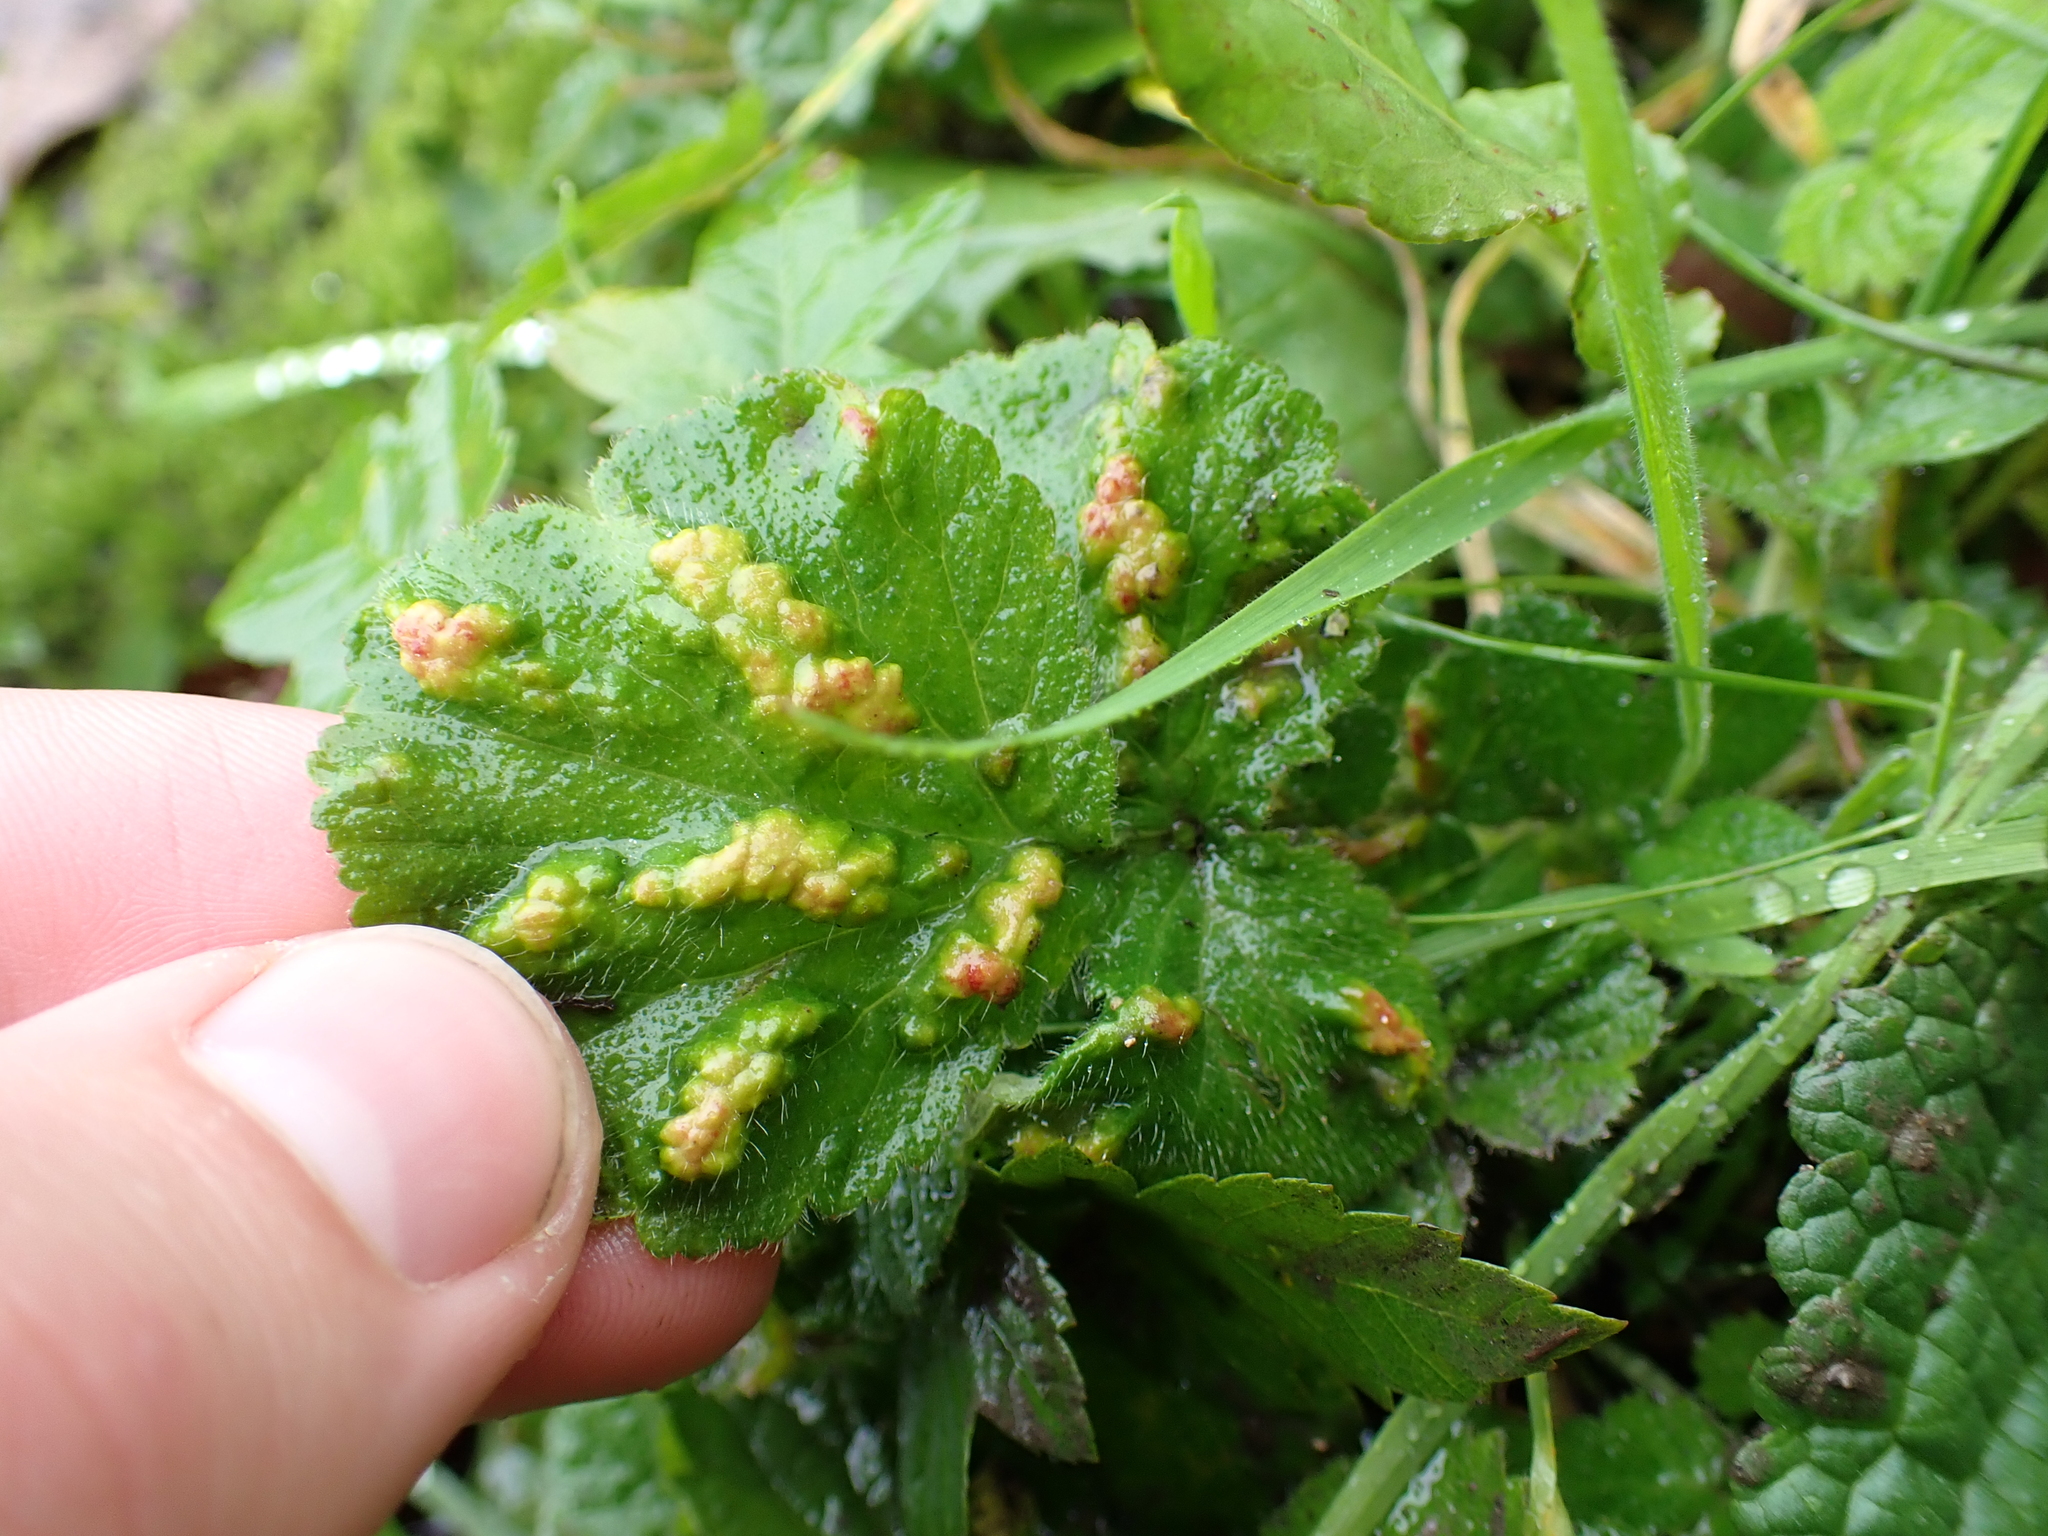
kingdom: Animalia
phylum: Arthropoda
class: Arachnida
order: Trombidiformes
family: Eriophyidae
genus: Cecidophyes
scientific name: Cecidophyes nudus
